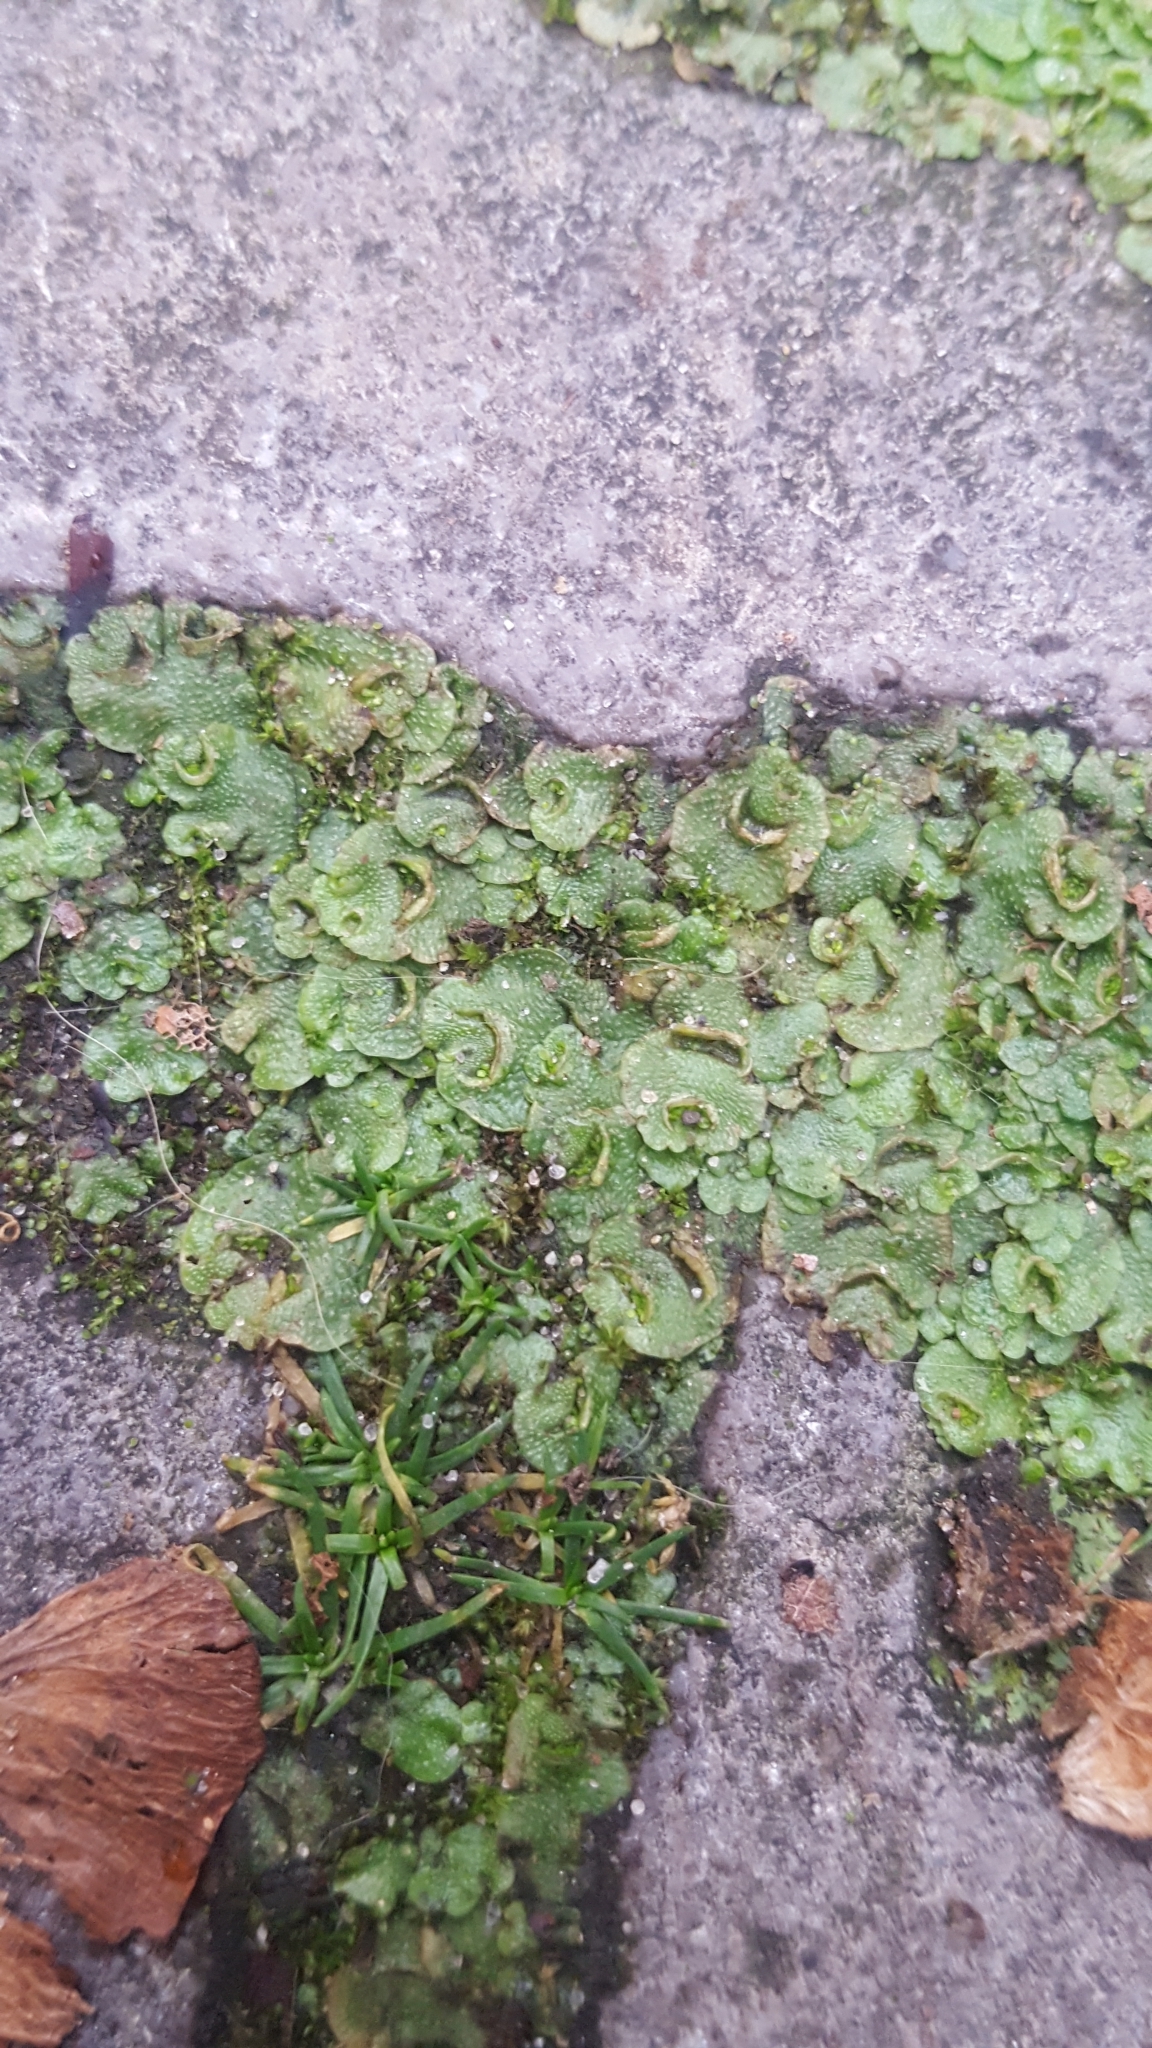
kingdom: Plantae
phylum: Marchantiophyta
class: Marchantiopsida
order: Lunulariales
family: Lunulariaceae
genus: Lunularia
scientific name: Lunularia cruciata
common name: Crescent-cup liverwort
